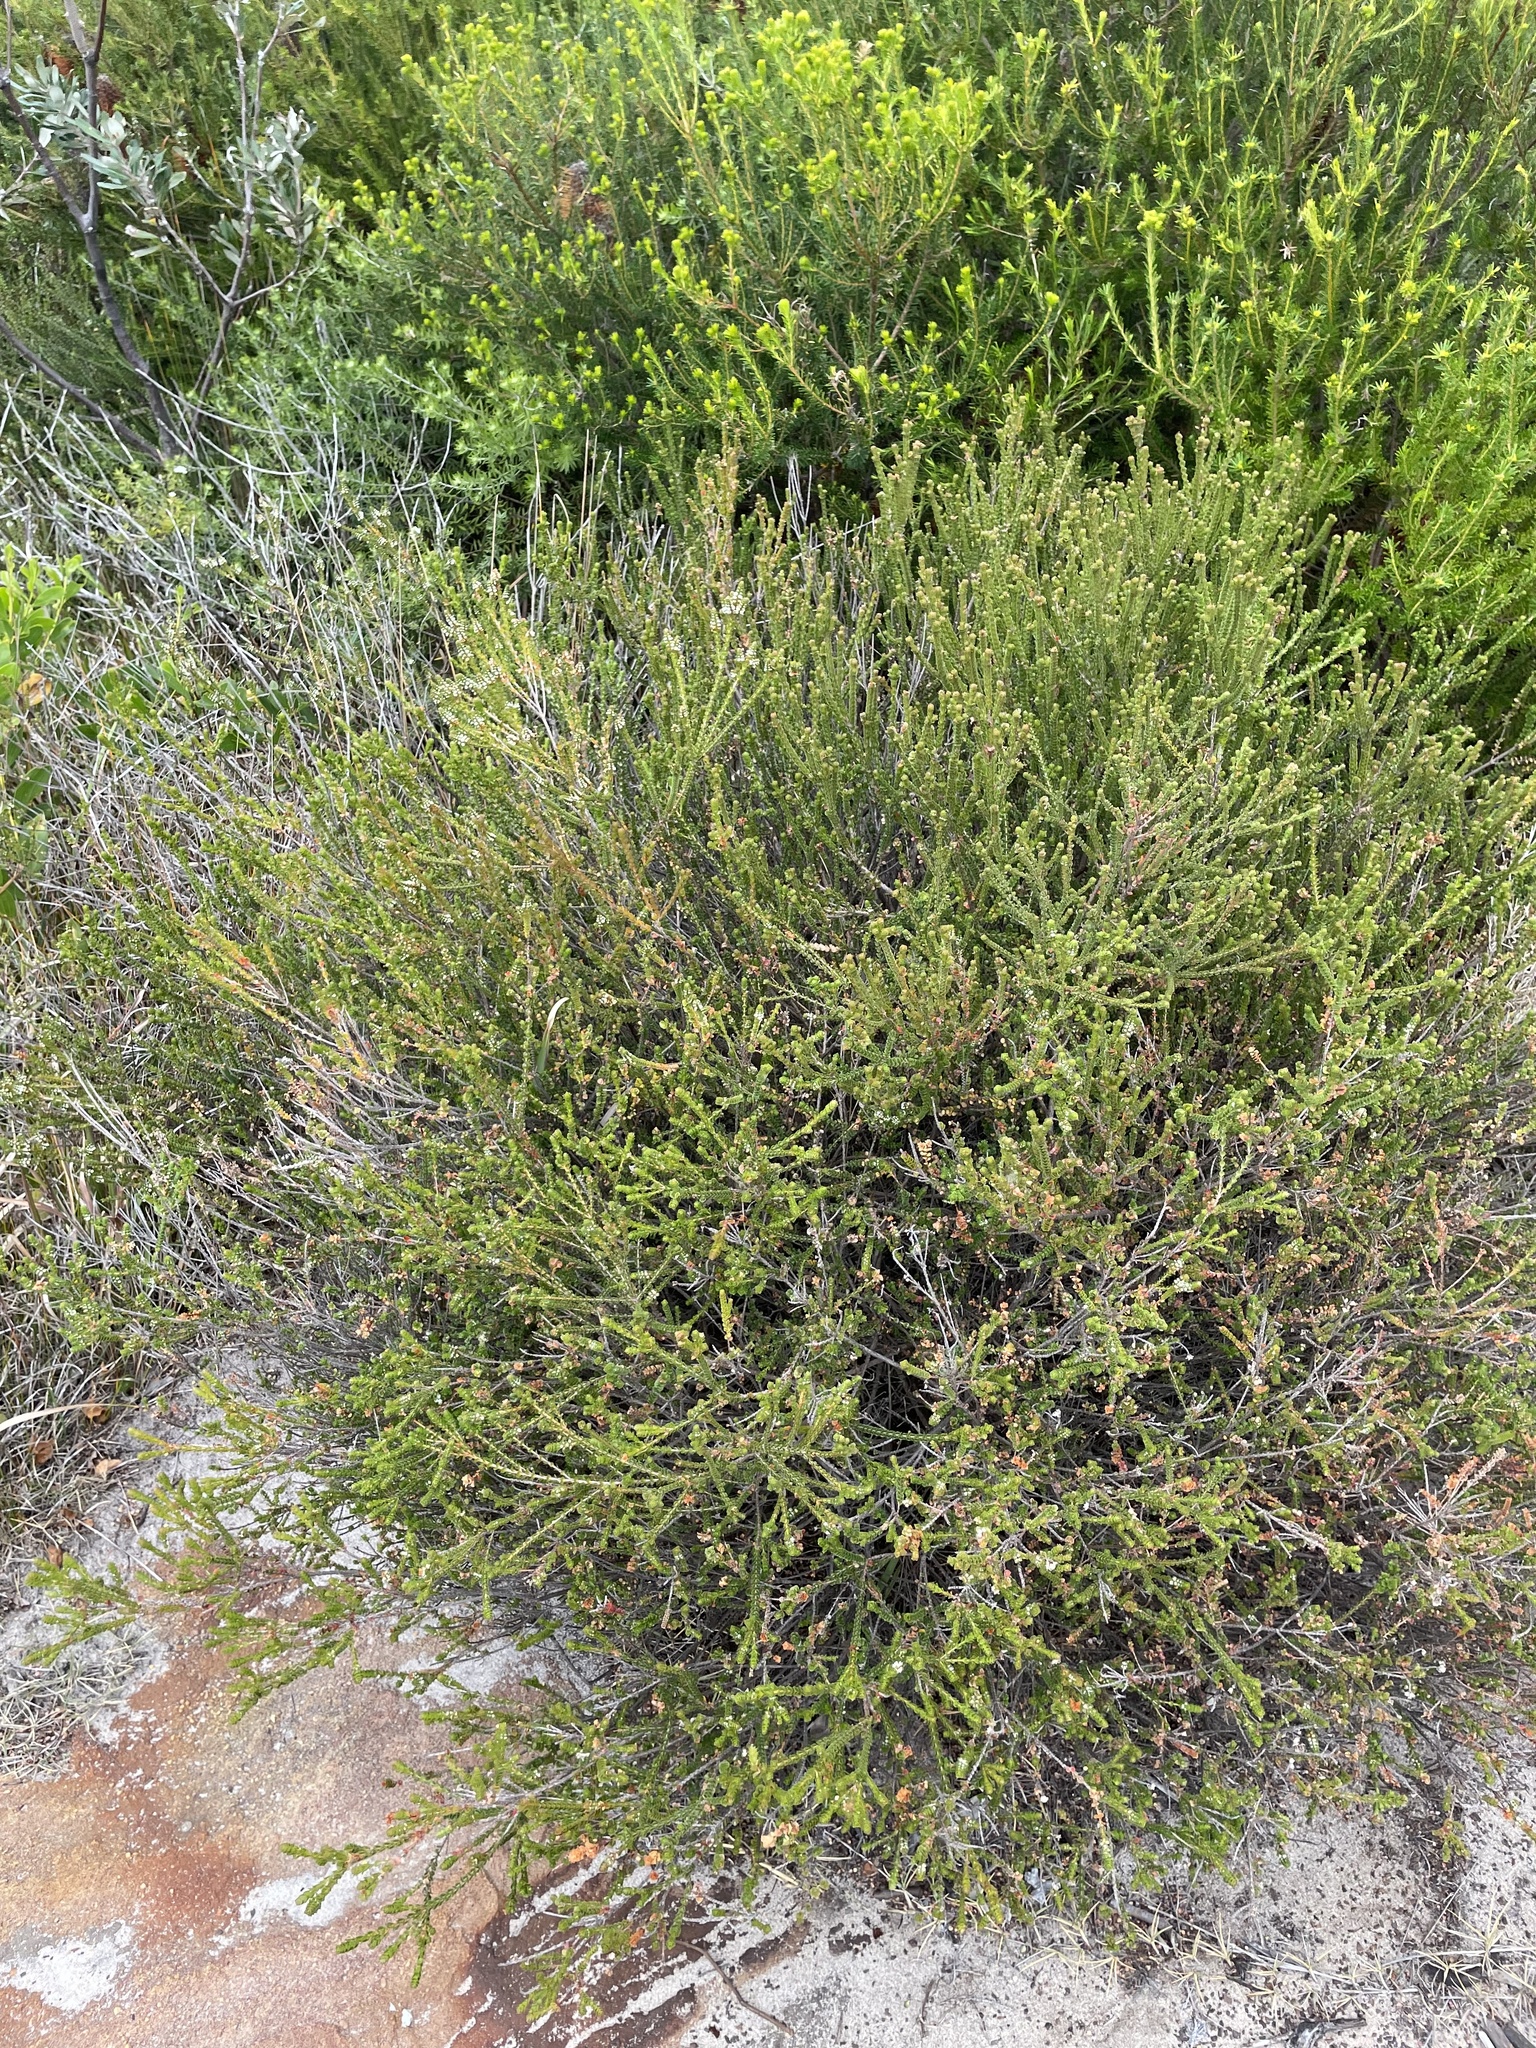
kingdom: Plantae
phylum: Tracheophyta
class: Magnoliopsida
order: Myrtales
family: Myrtaceae
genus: Baeckea
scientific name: Baeckea imbricata
